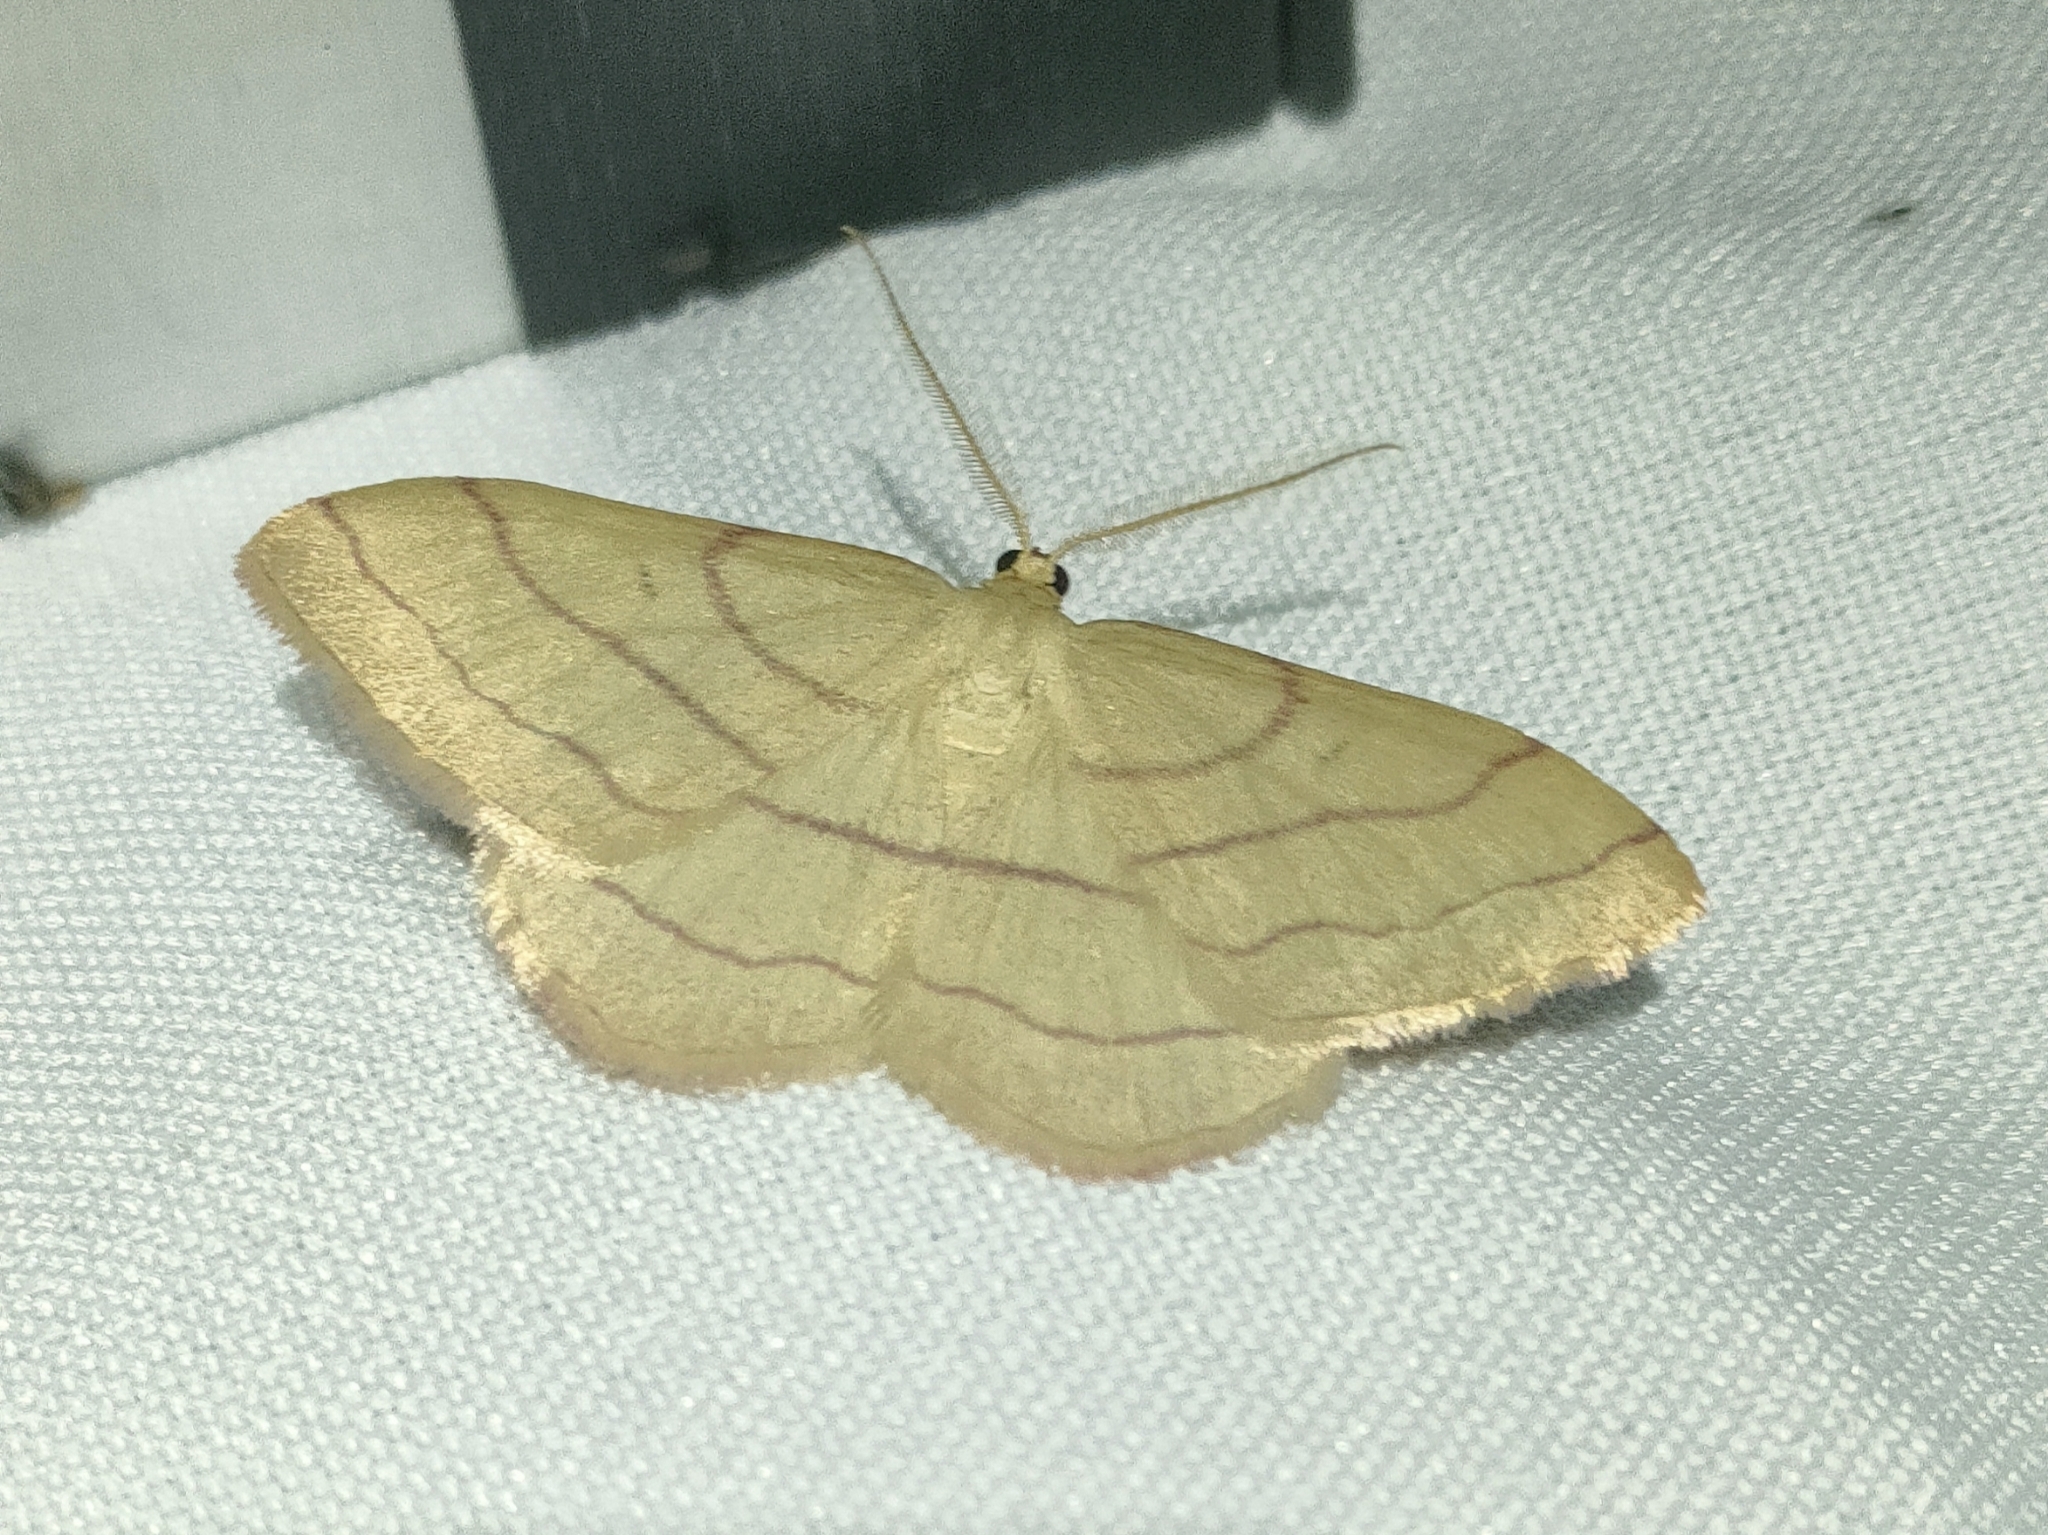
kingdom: Animalia
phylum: Arthropoda
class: Insecta
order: Lepidoptera
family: Geometridae
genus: Rhodostrophia
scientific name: Rhodostrophia vibicaria
